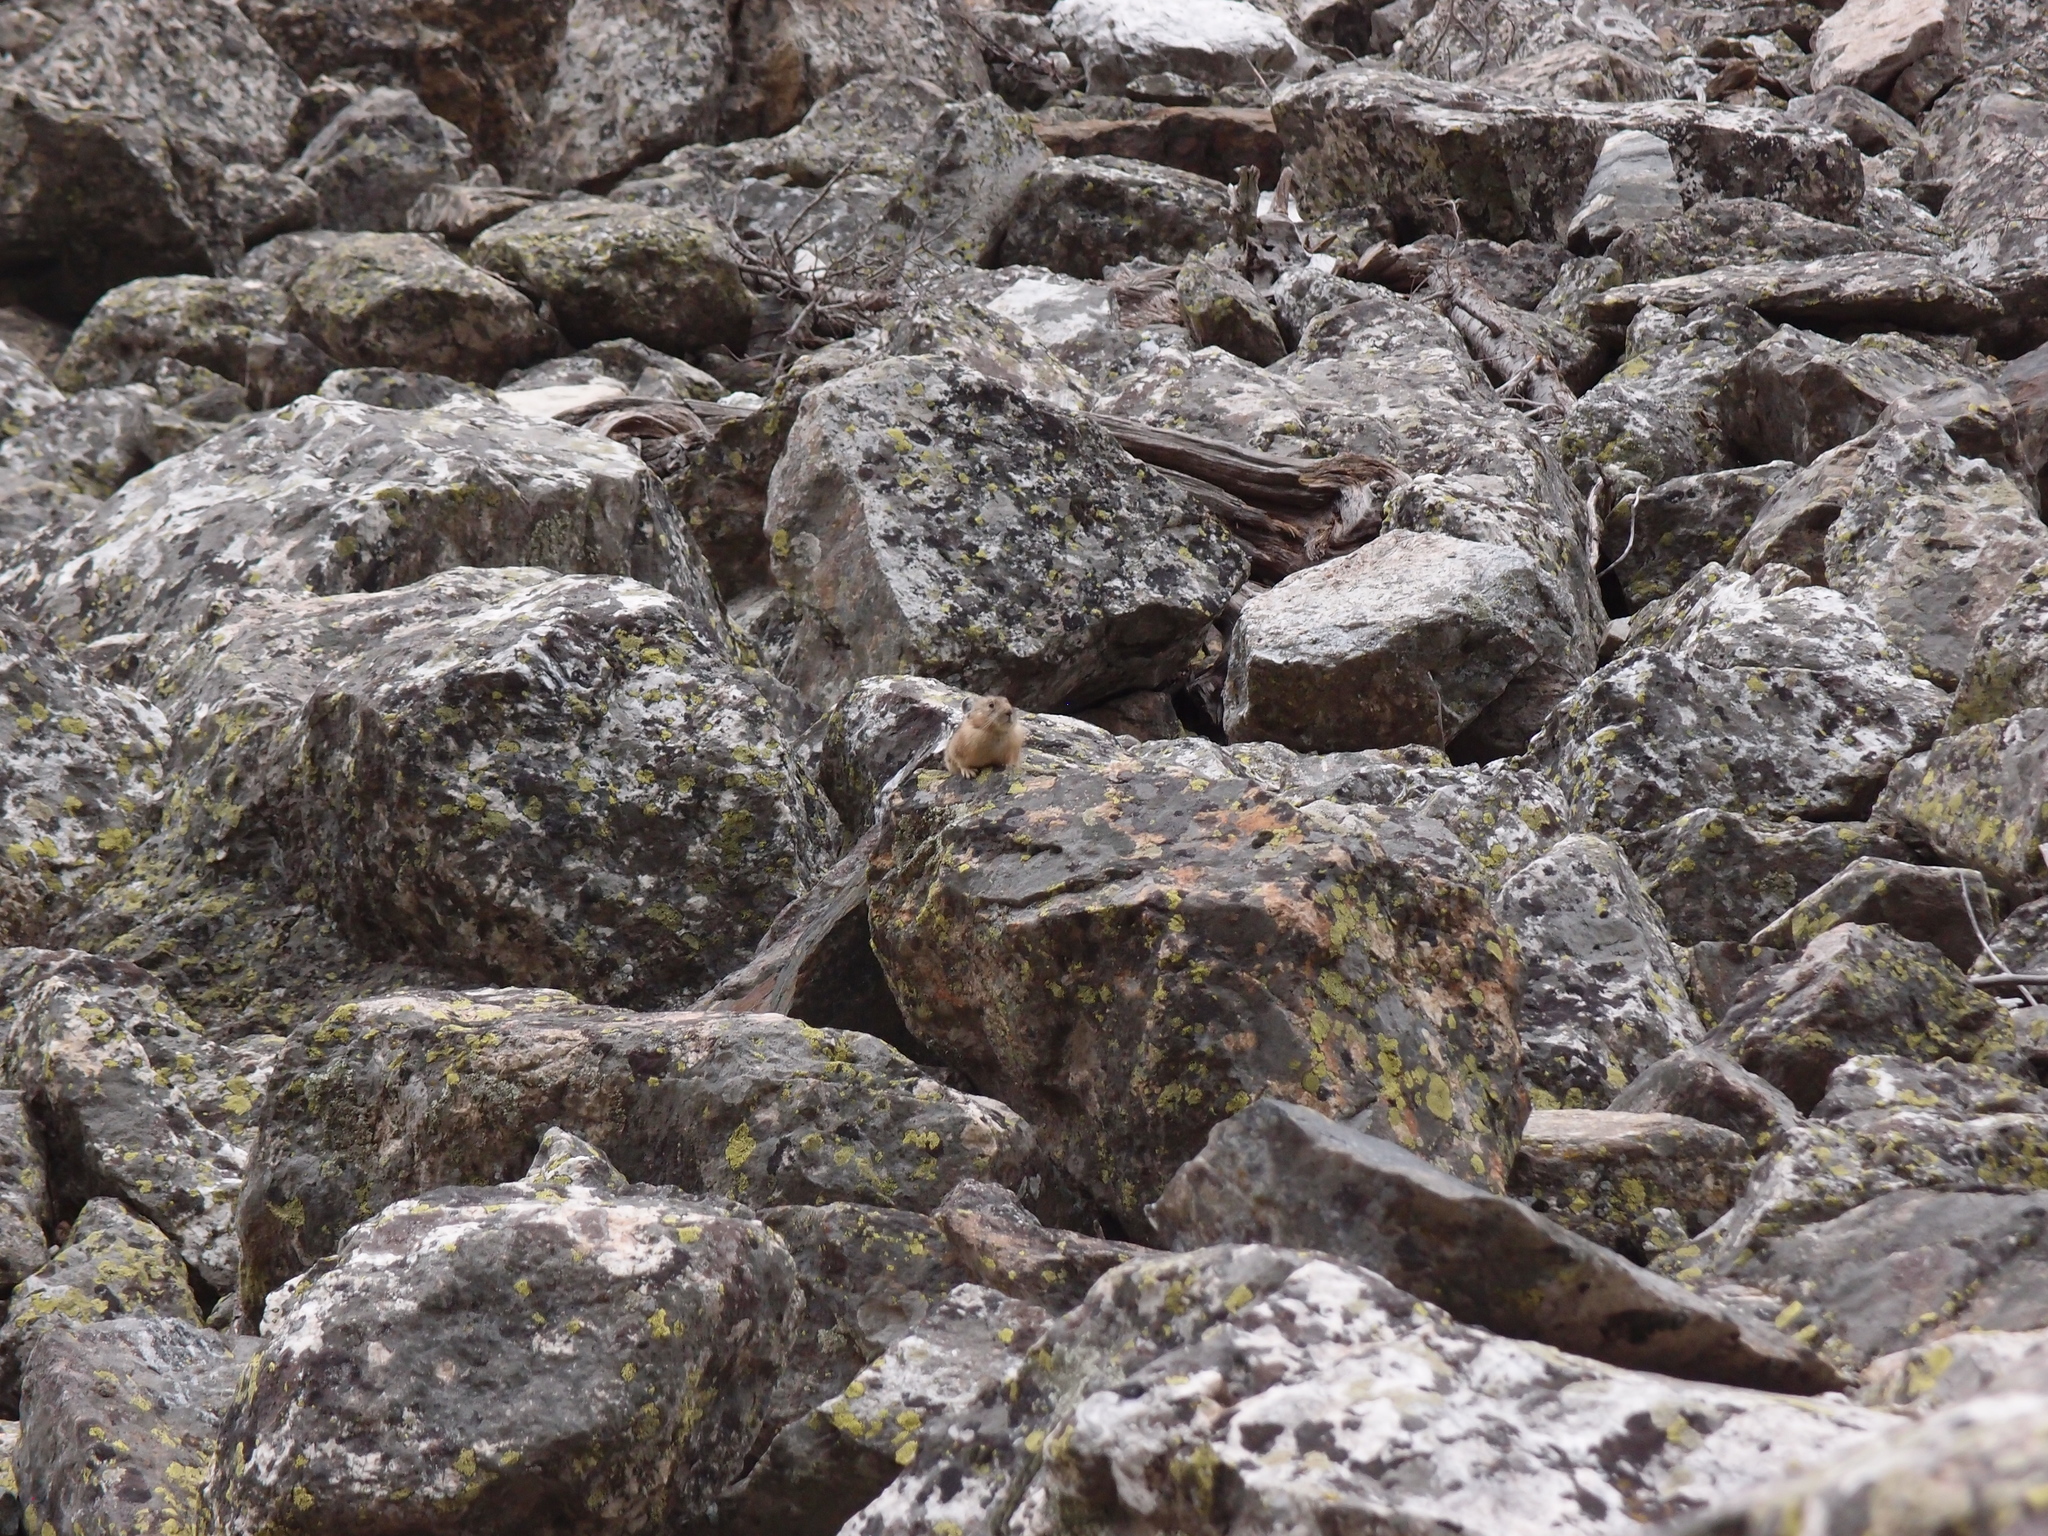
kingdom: Animalia
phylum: Chordata
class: Mammalia
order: Lagomorpha
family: Ochotonidae
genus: Ochotona
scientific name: Ochotona princeps
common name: American pika
